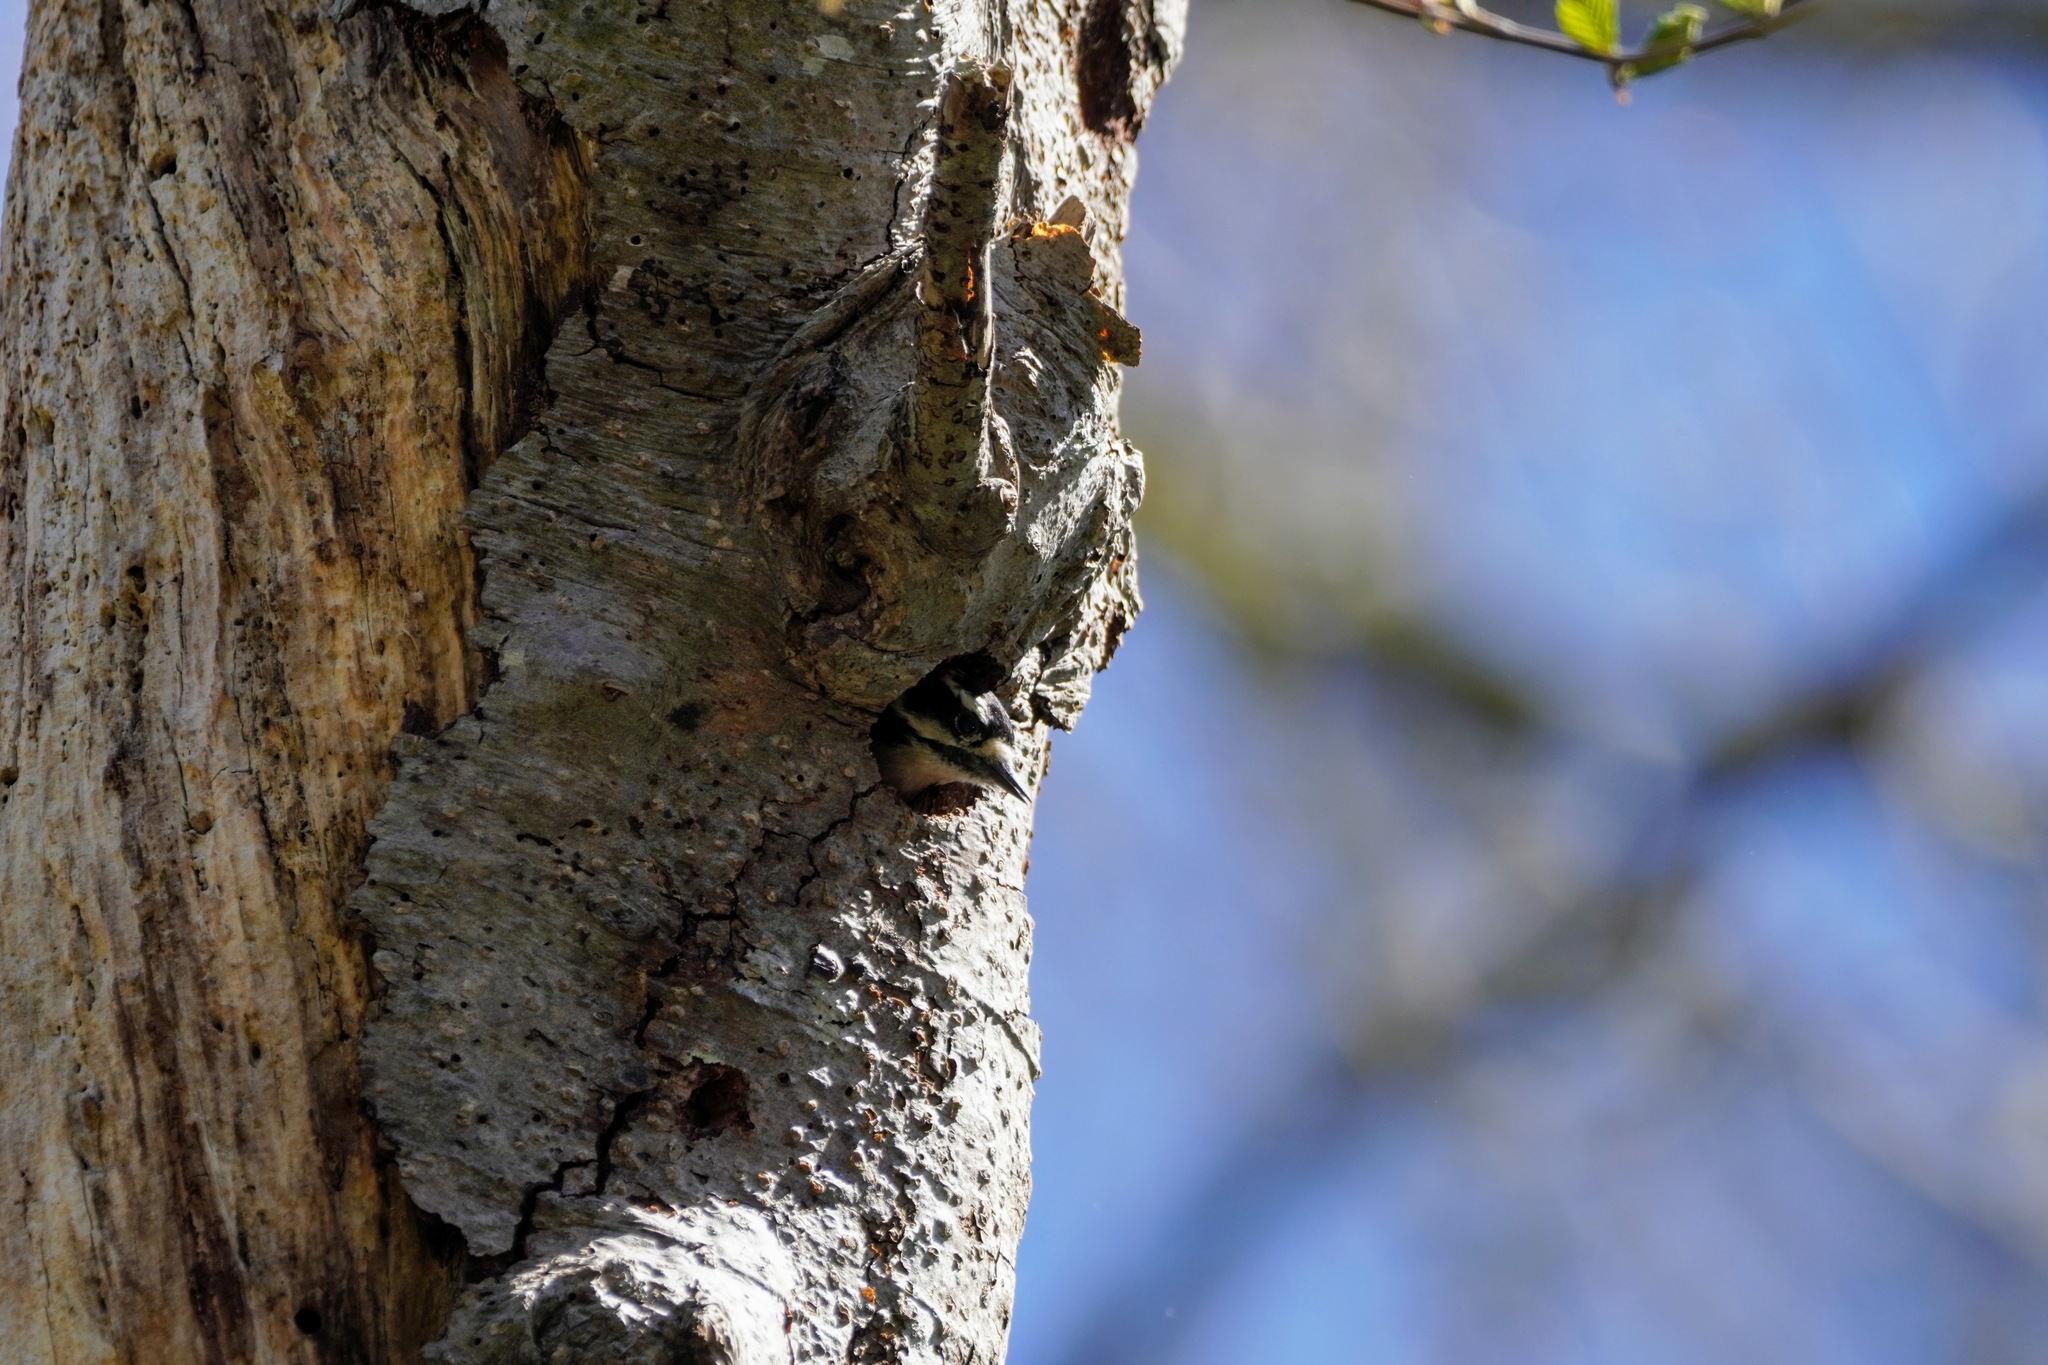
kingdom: Animalia
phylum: Chordata
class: Aves
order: Piciformes
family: Picidae
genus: Dryobates
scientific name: Dryobates pubescens
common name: Downy woodpecker
